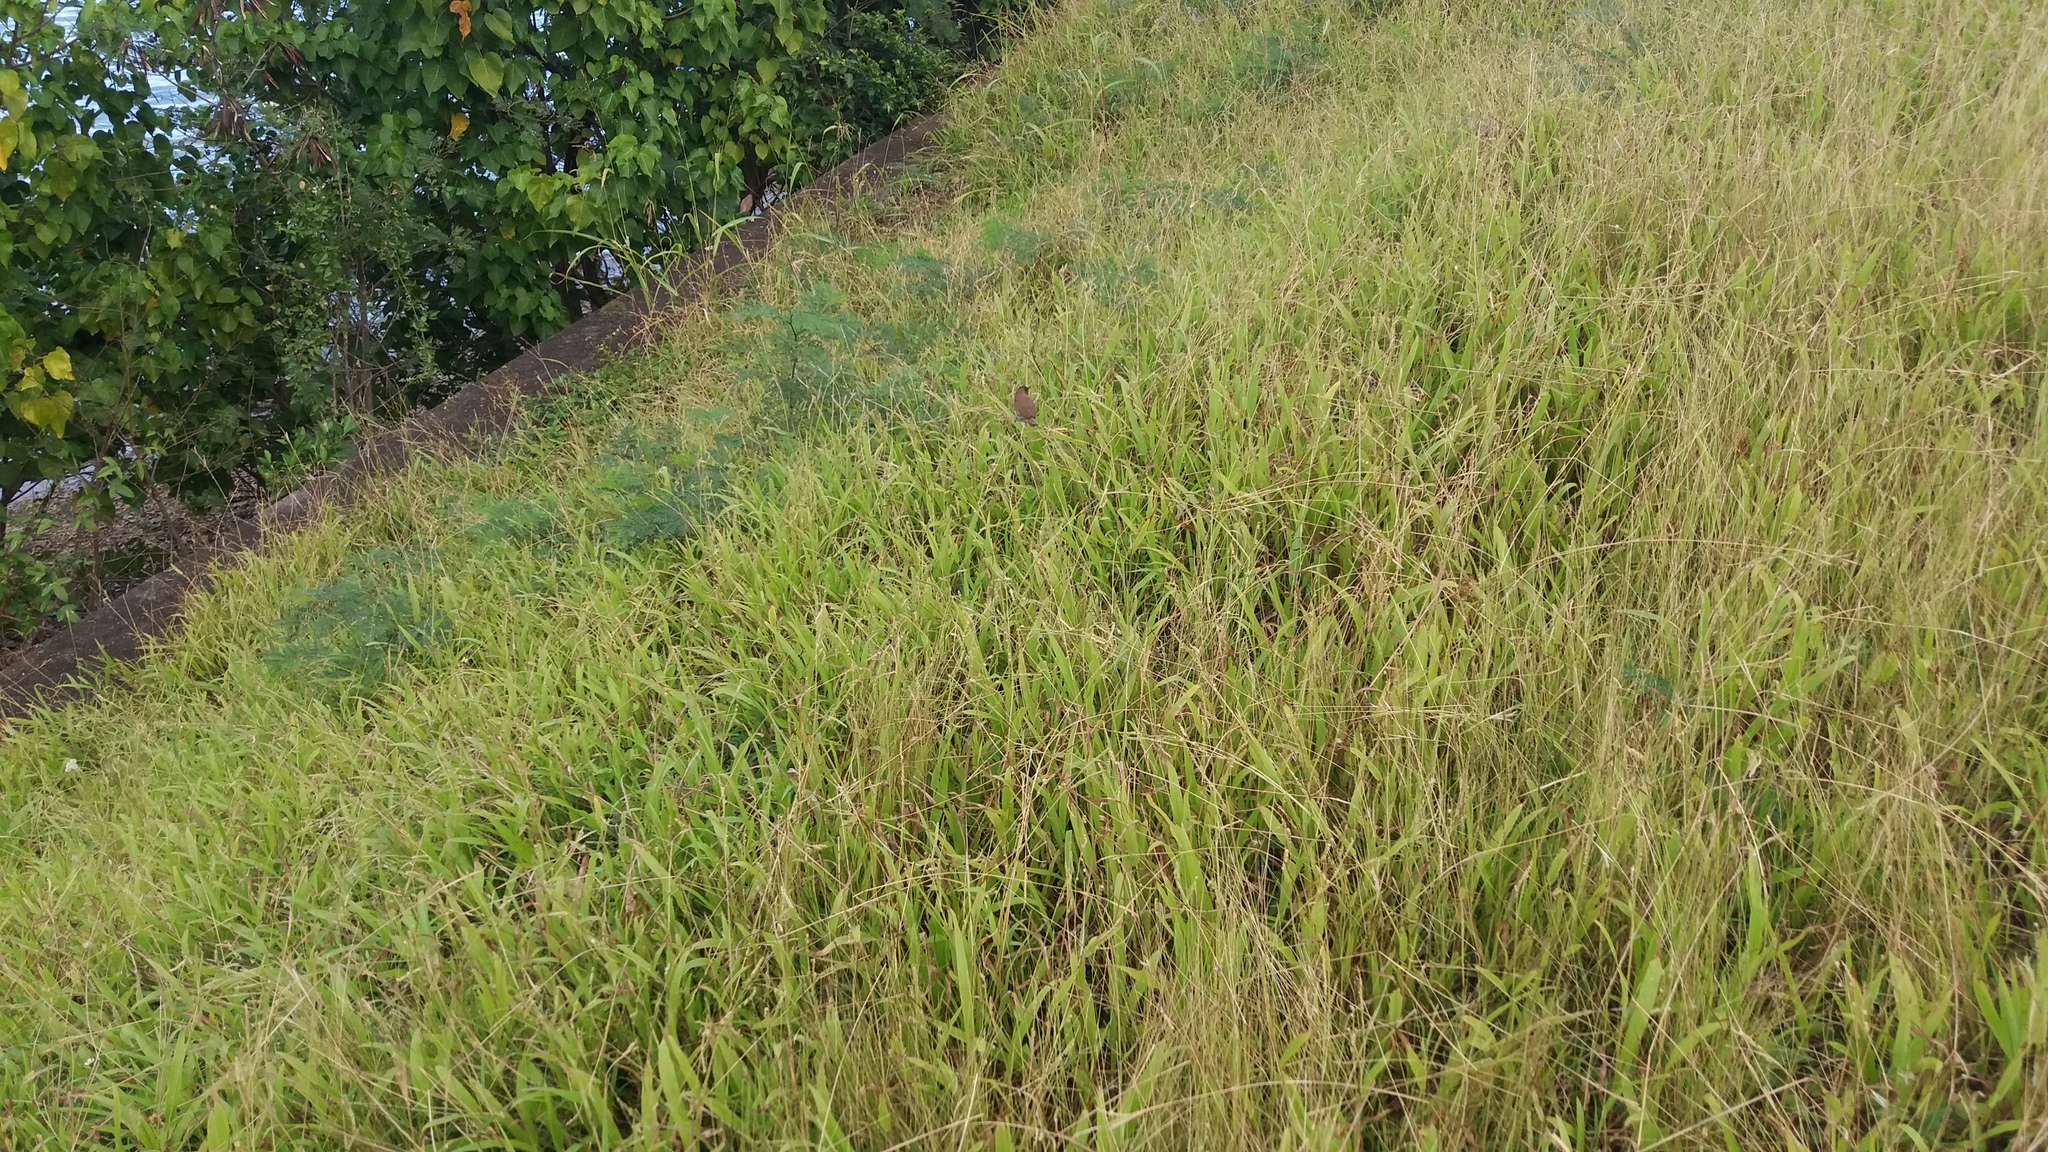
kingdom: Animalia
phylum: Chordata
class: Aves
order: Passeriformes
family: Estrildidae
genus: Lonchura
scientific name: Lonchura punctulata
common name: Scaly-breasted munia
